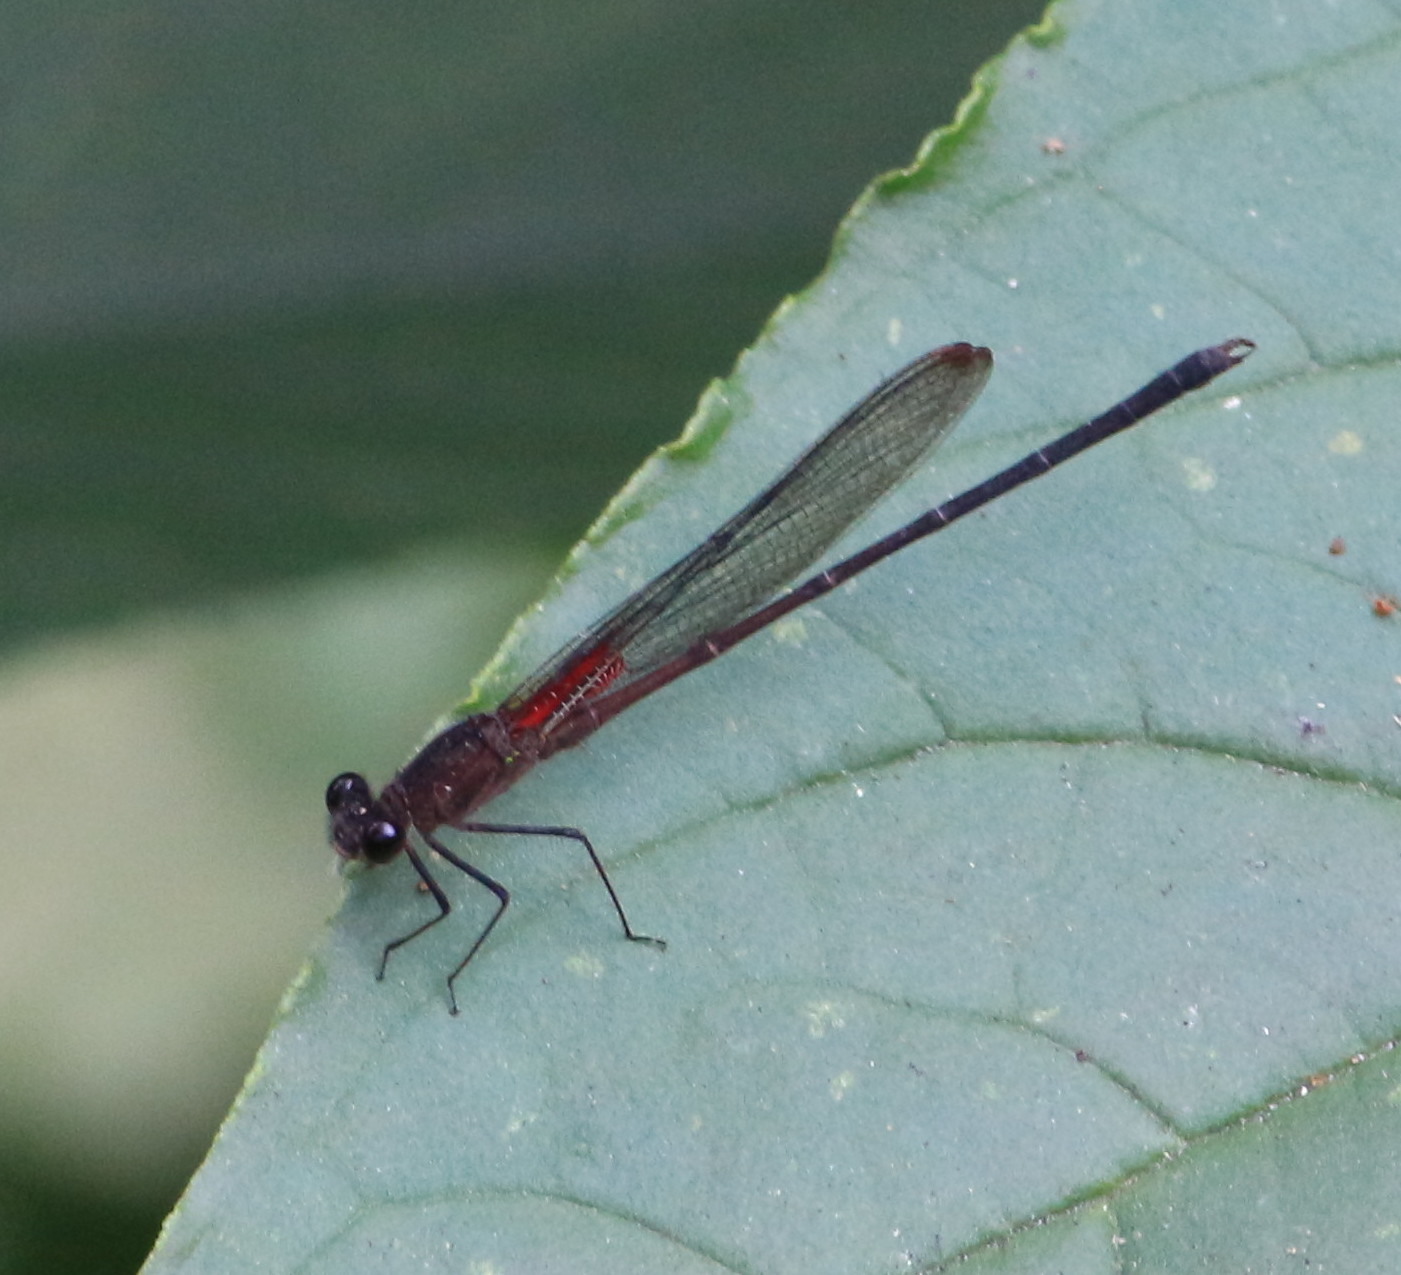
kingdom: Animalia
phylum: Arthropoda
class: Insecta
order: Odonata
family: Calopterygidae
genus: Hetaerina
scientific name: Hetaerina cruentata
